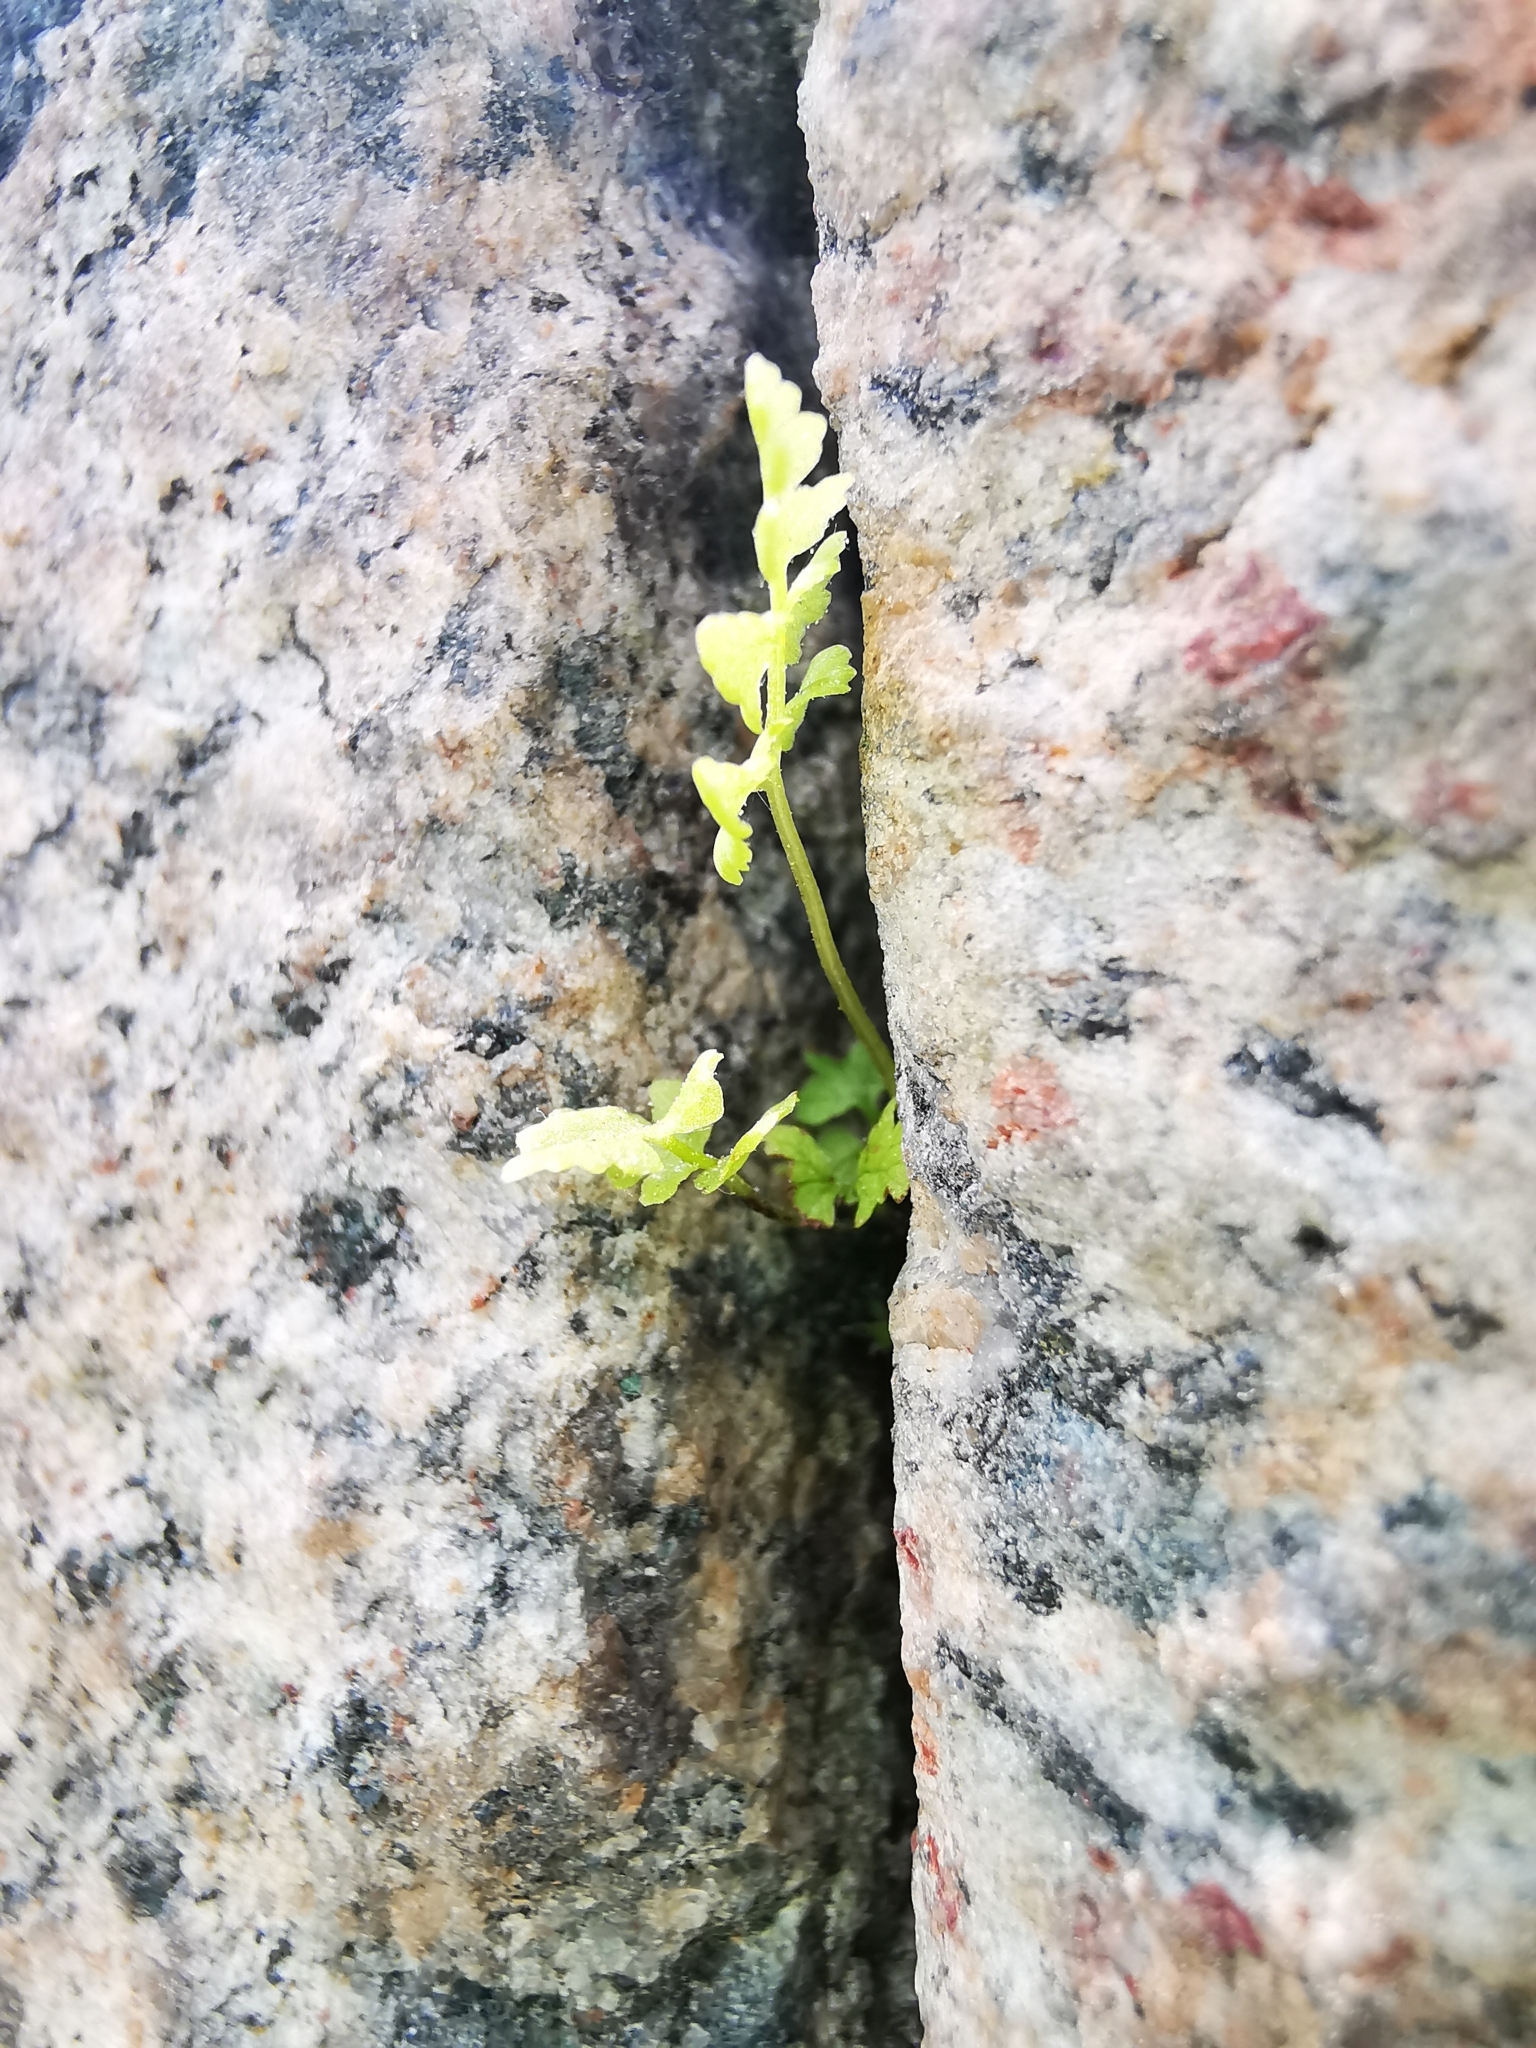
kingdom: Plantae
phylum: Tracheophyta
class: Polypodiopsida
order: Polypodiales
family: Cystopteridaceae
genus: Cystopteris
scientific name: Cystopteris fragilis
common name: Brittle bladder fern
